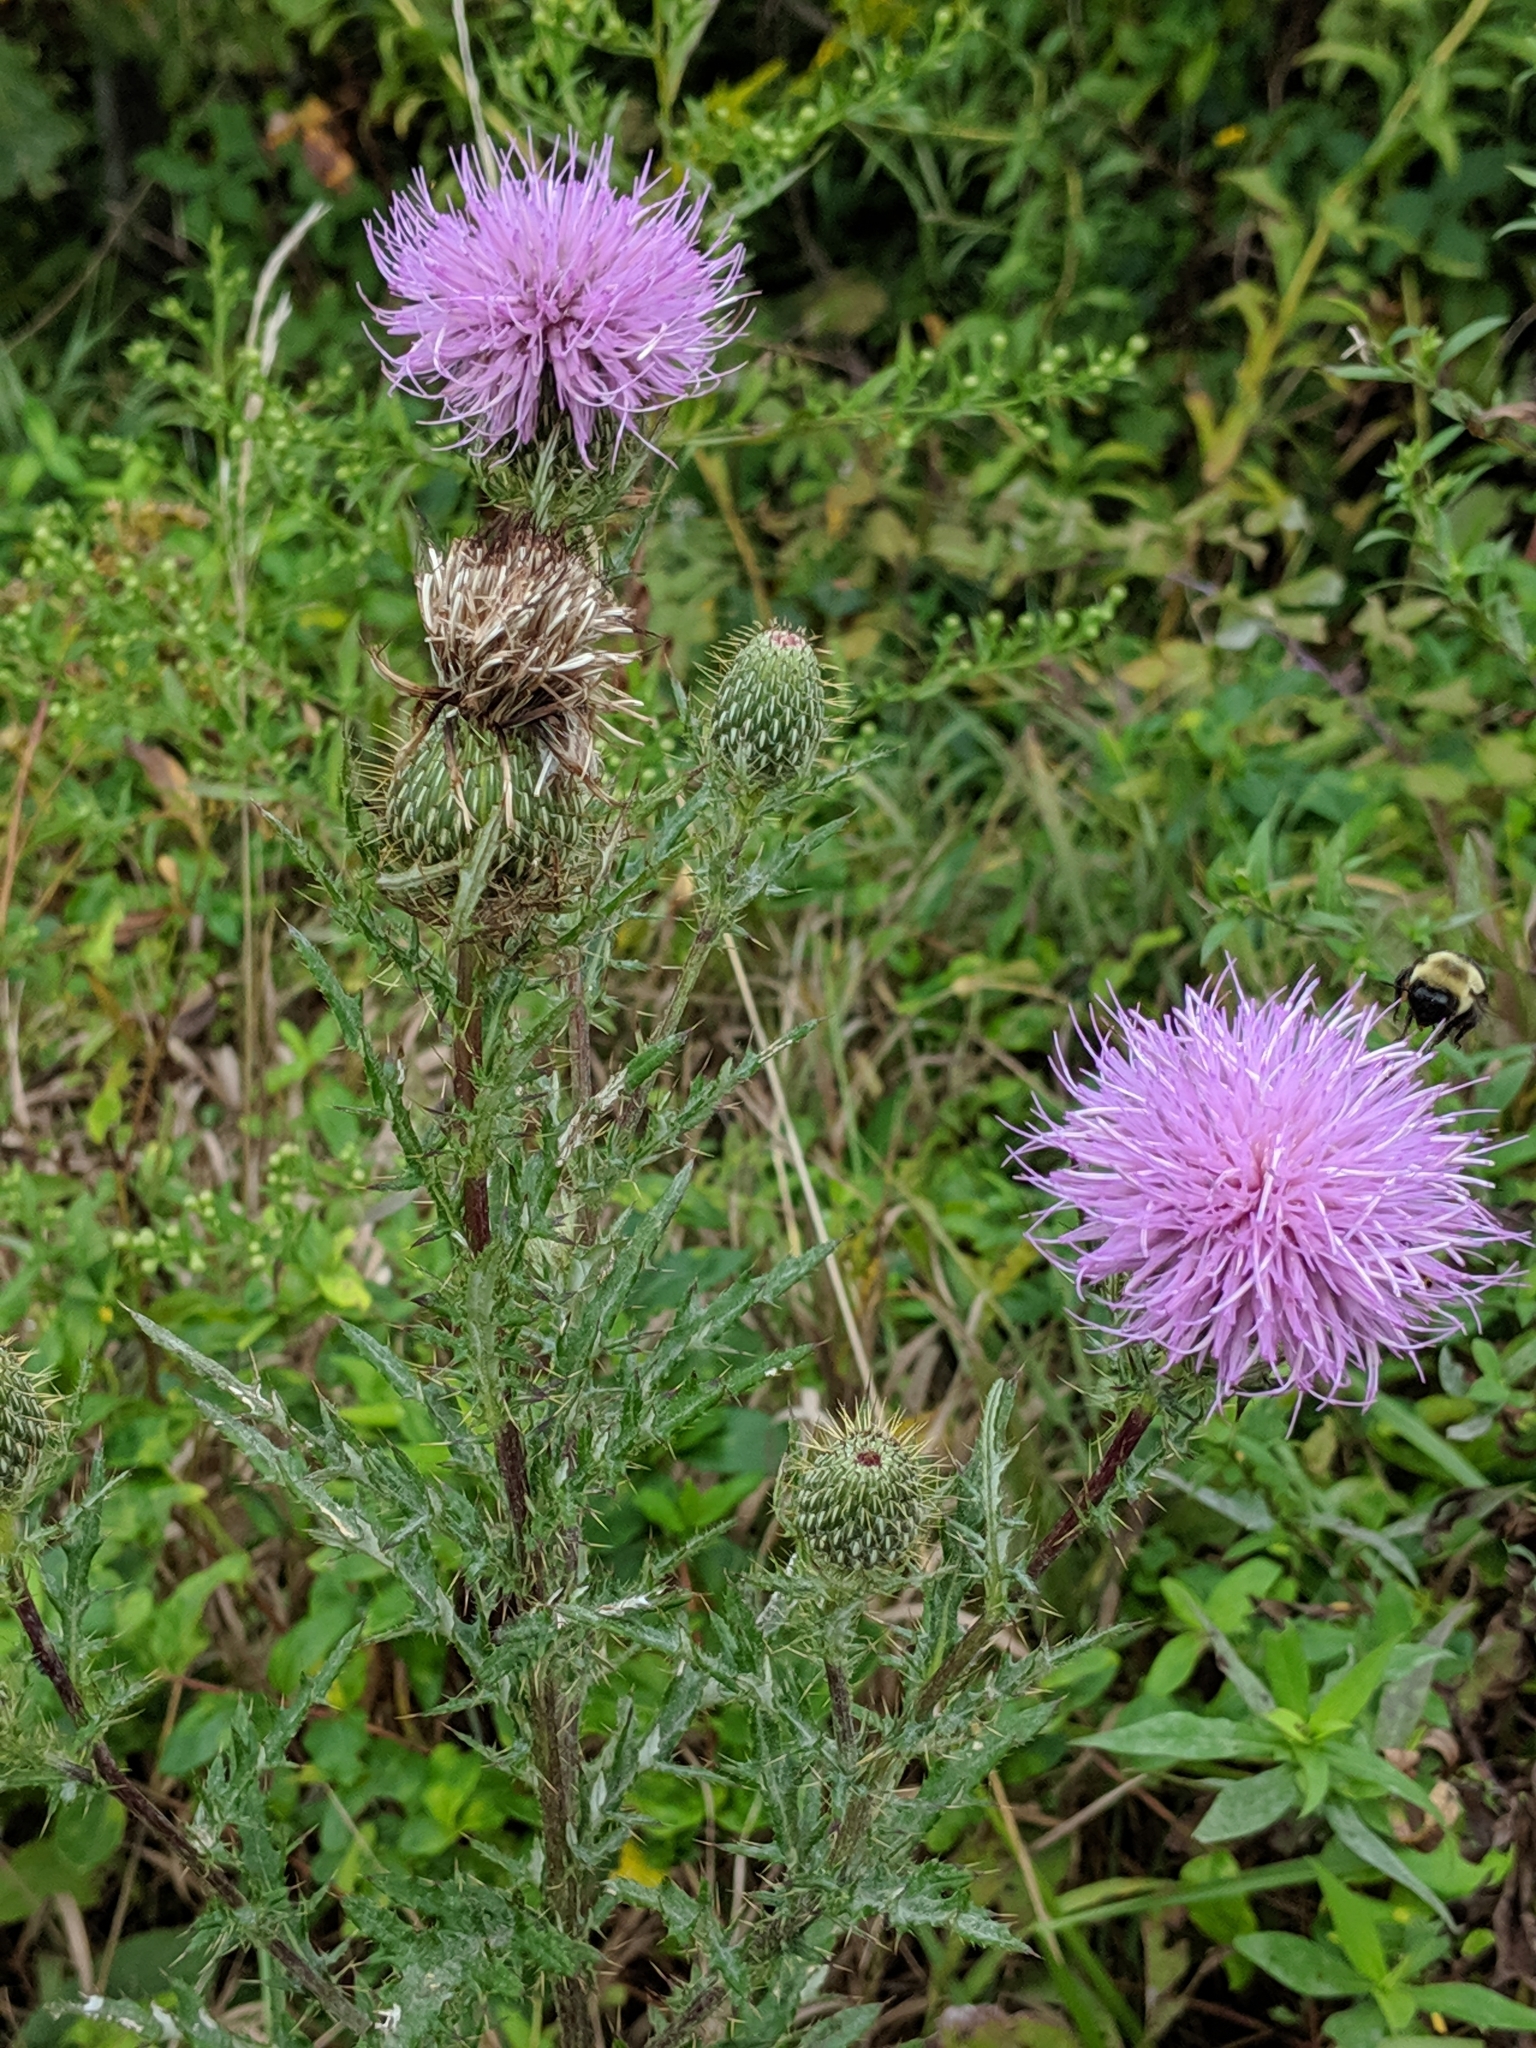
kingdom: Plantae
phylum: Tracheophyta
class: Magnoliopsida
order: Asterales
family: Asteraceae
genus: Cirsium
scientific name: Cirsium discolor
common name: Field thistle
